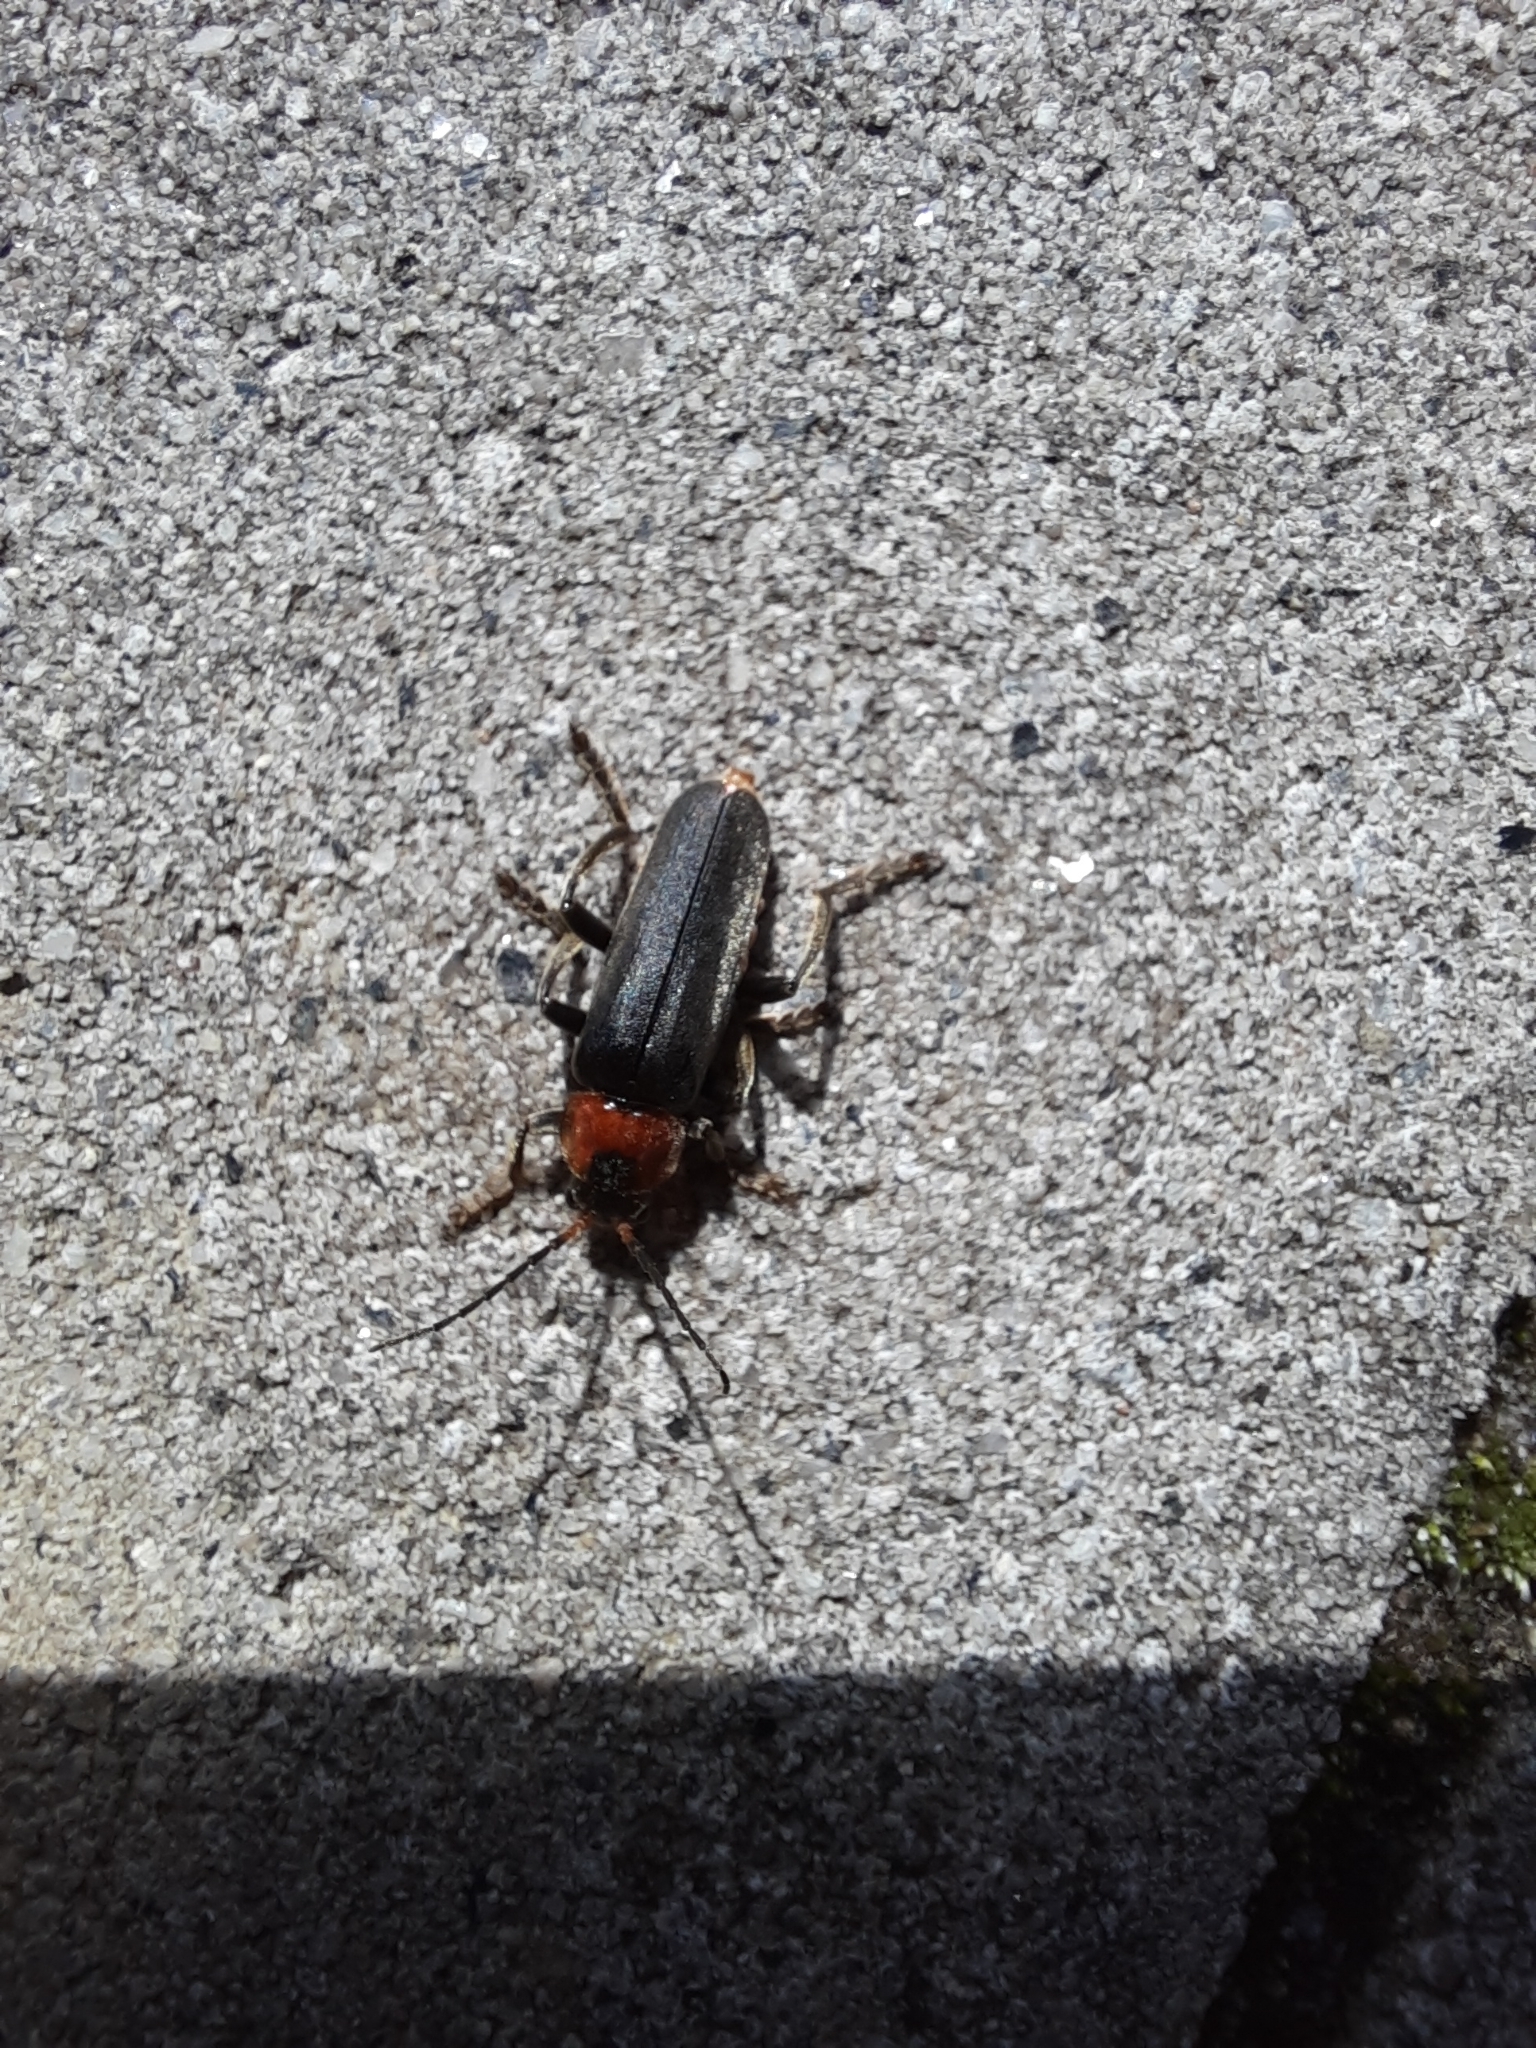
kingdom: Animalia
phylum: Arthropoda
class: Insecta
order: Coleoptera
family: Cantharidae
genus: Cantharis
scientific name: Cantharis fusca
